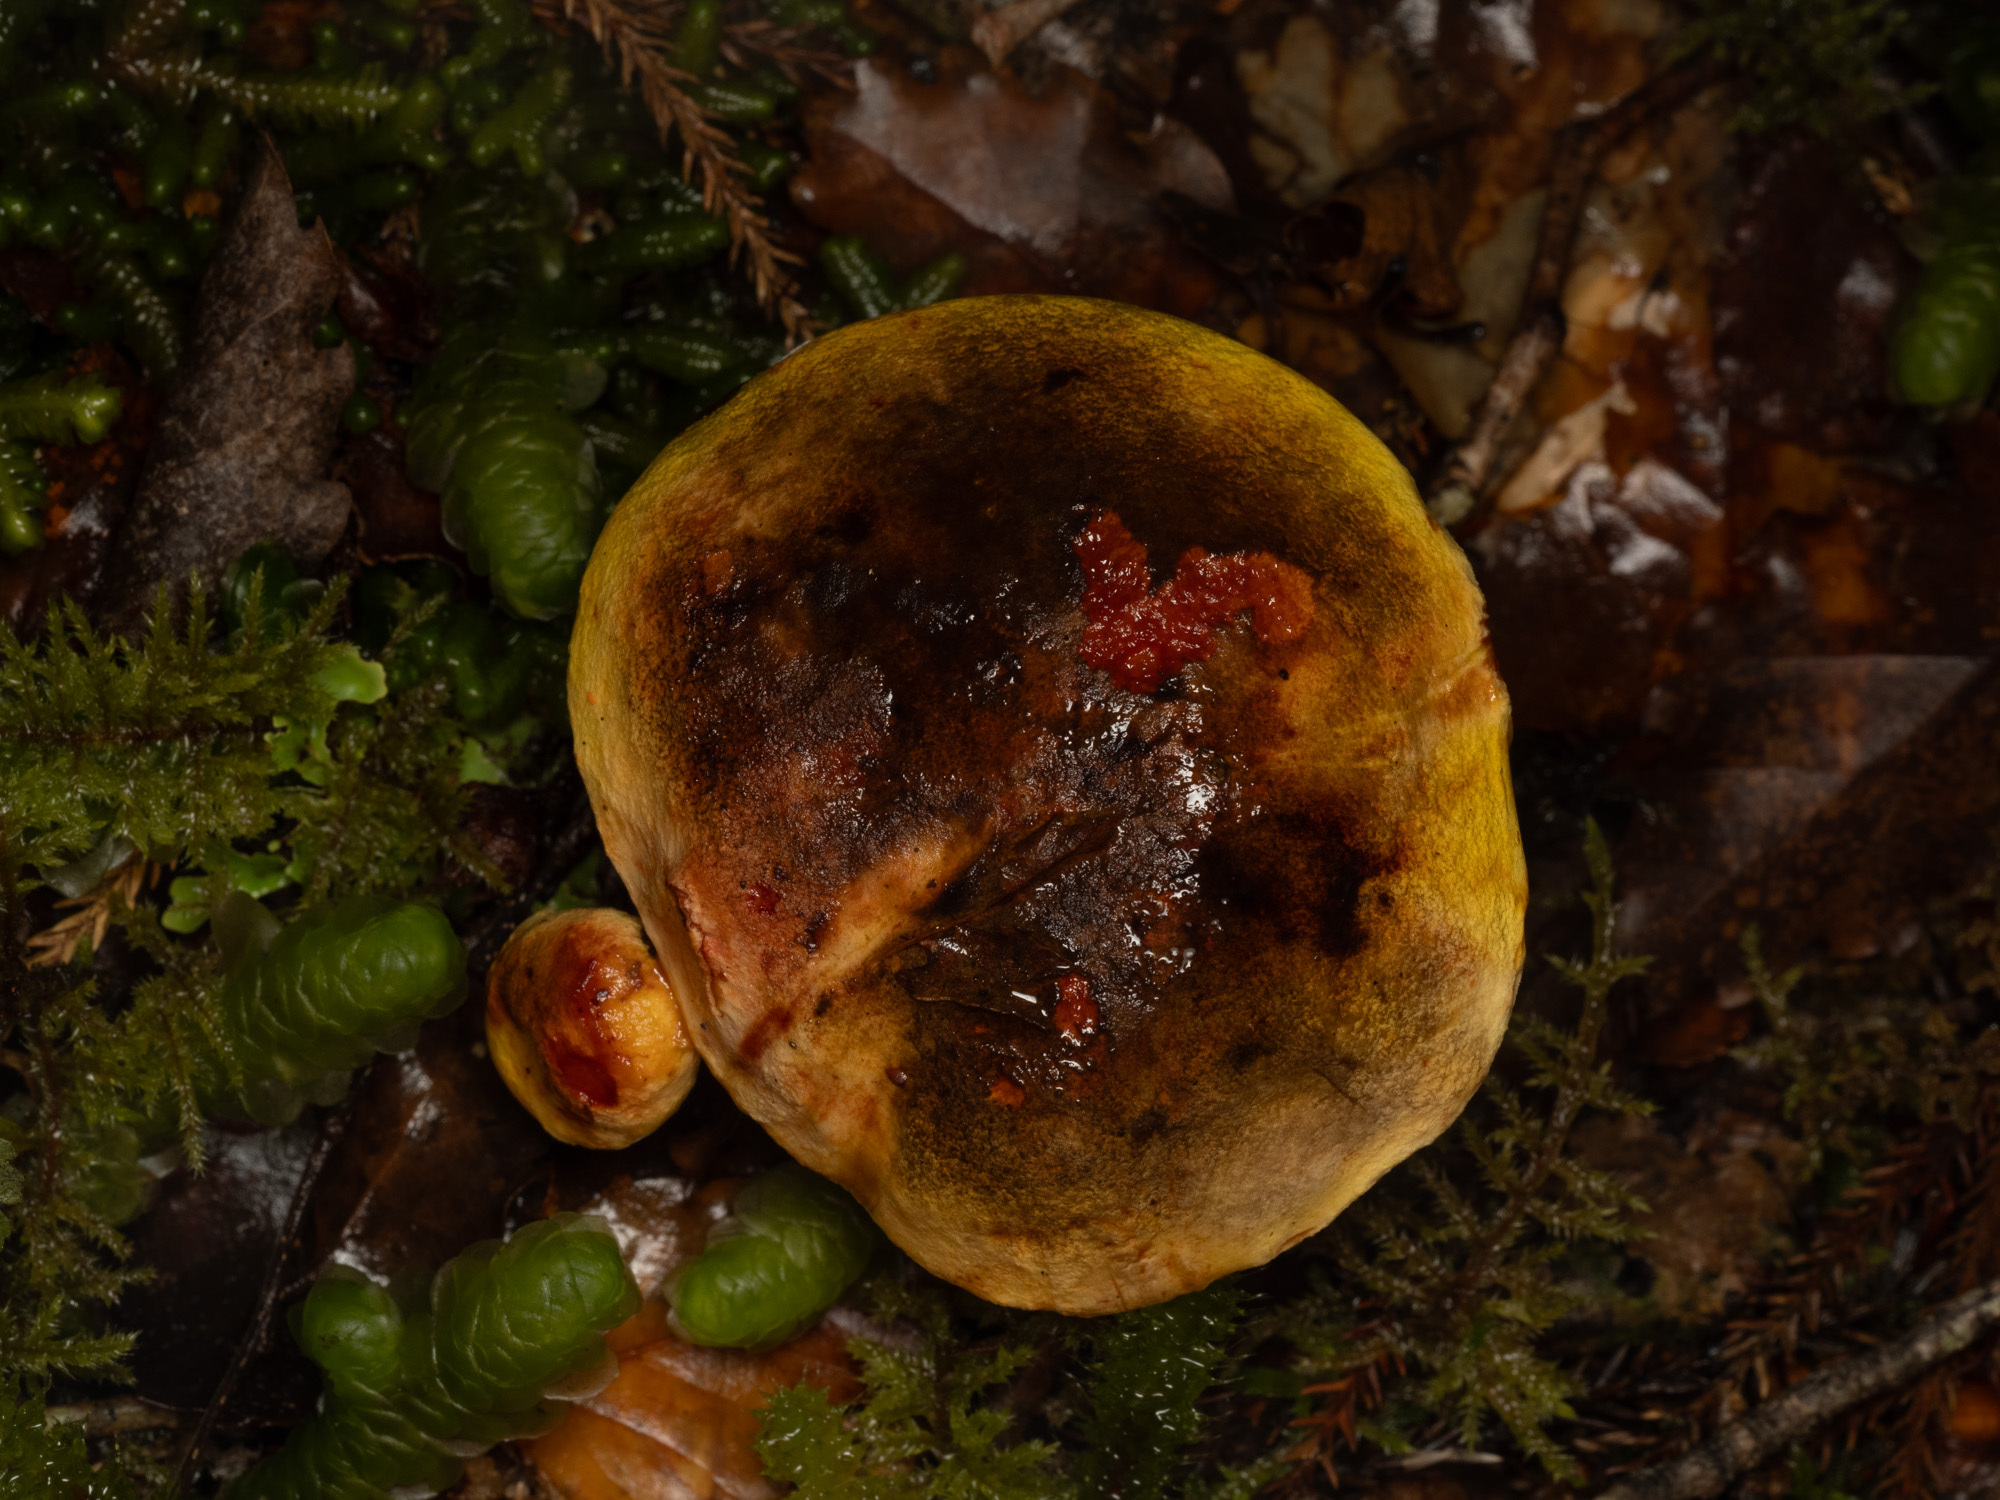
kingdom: Fungi
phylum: Basidiomycota
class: Agaricomycetes
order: Boletales
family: Boletaceae
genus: Xerocomus
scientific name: Xerocomus leptospermi
